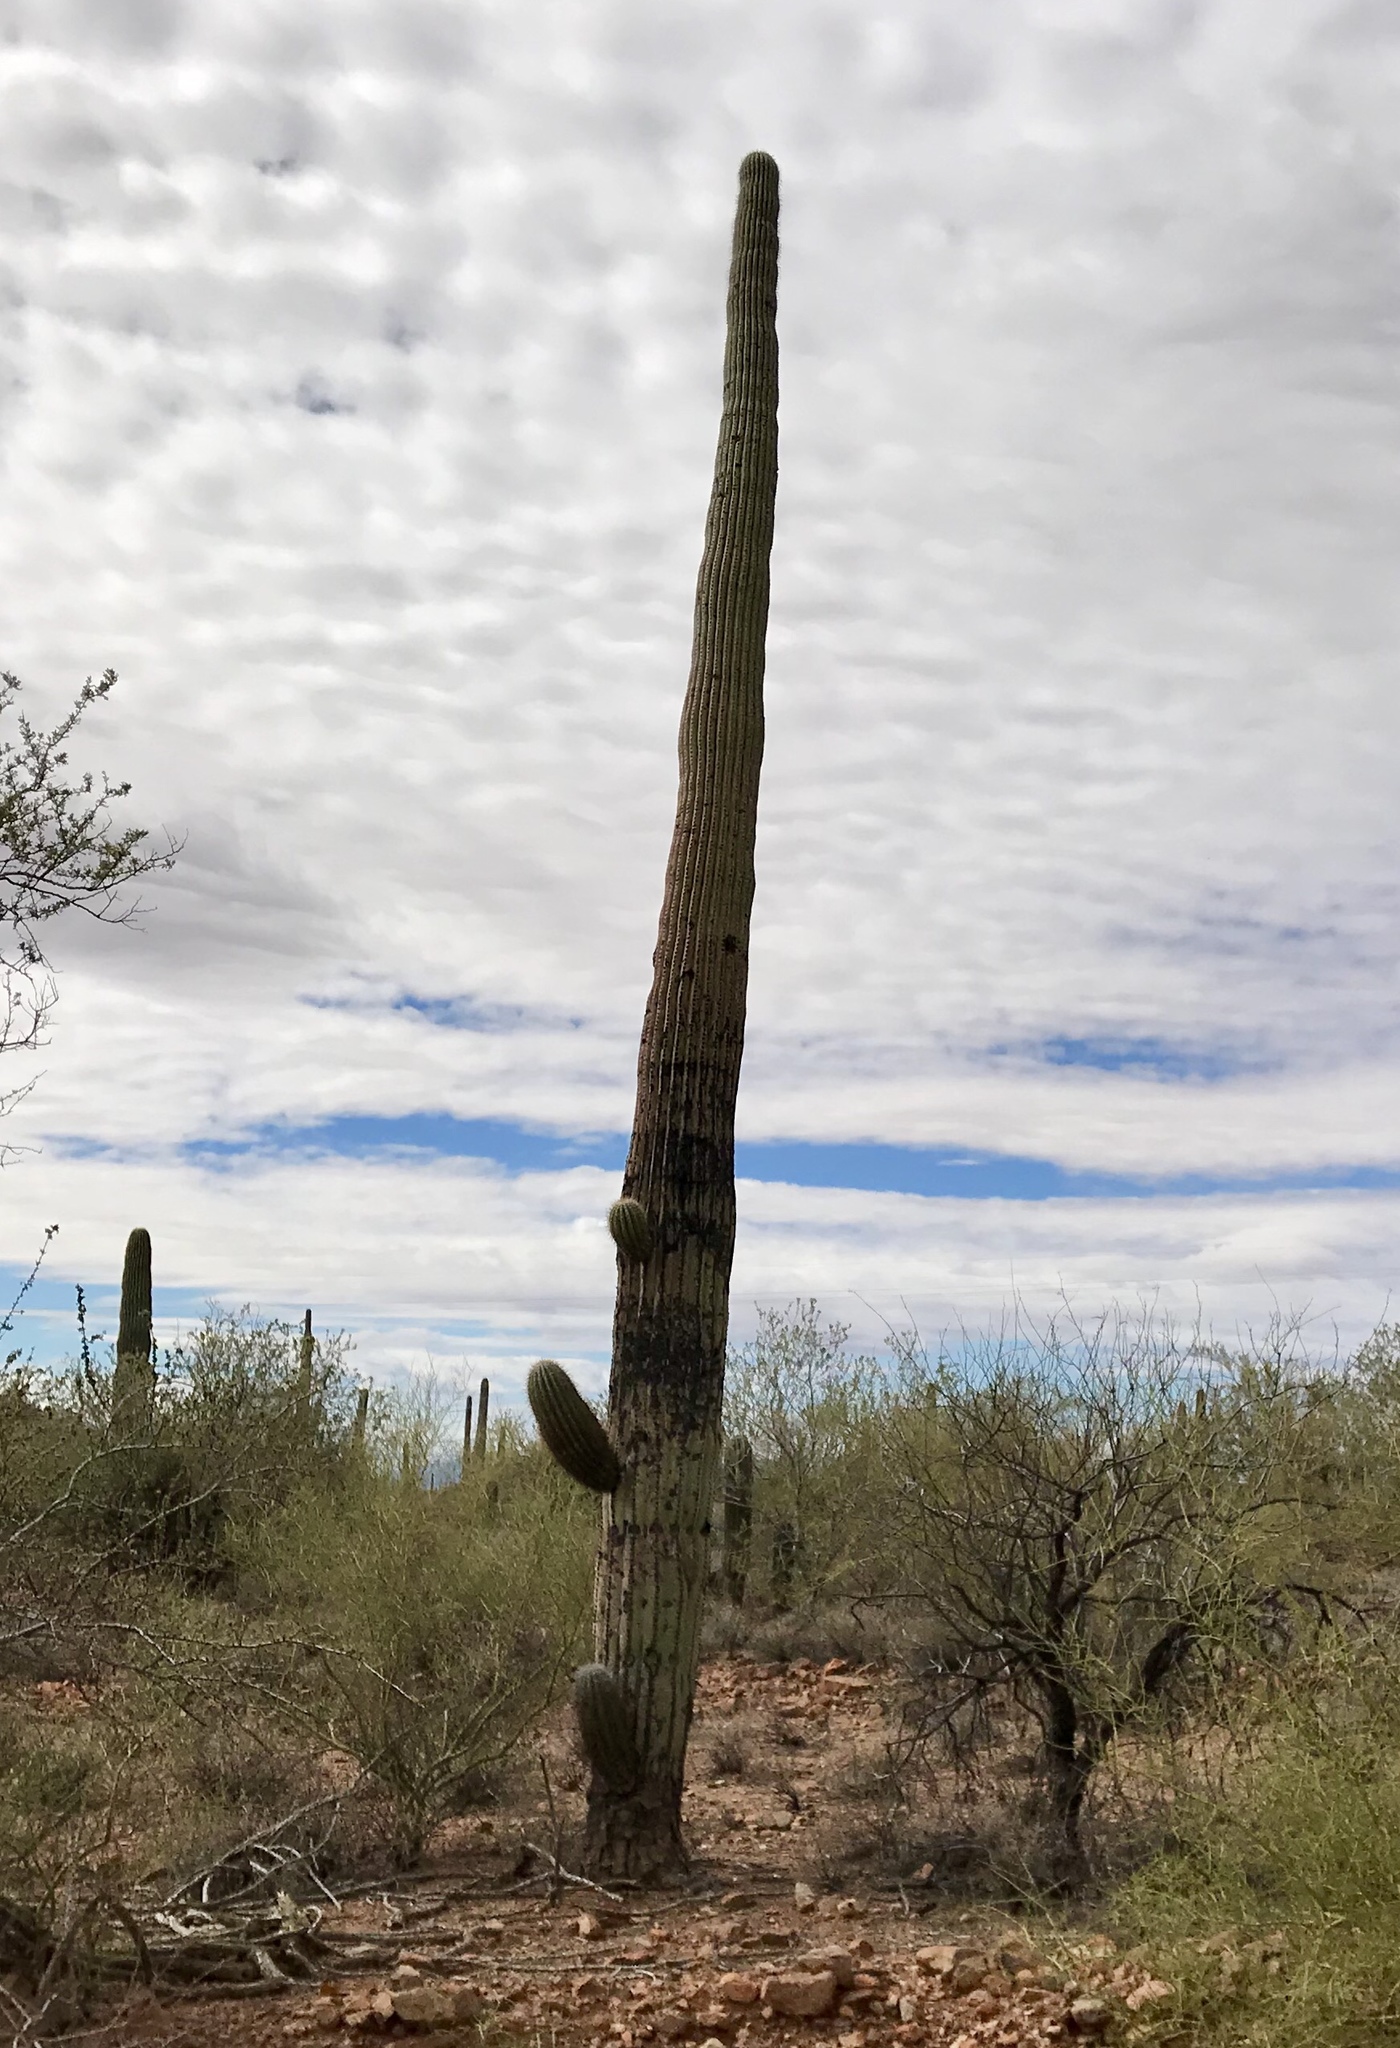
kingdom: Plantae
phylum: Tracheophyta
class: Magnoliopsida
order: Caryophyllales
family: Cactaceae
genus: Carnegiea
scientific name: Carnegiea gigantea
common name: Saguaro
